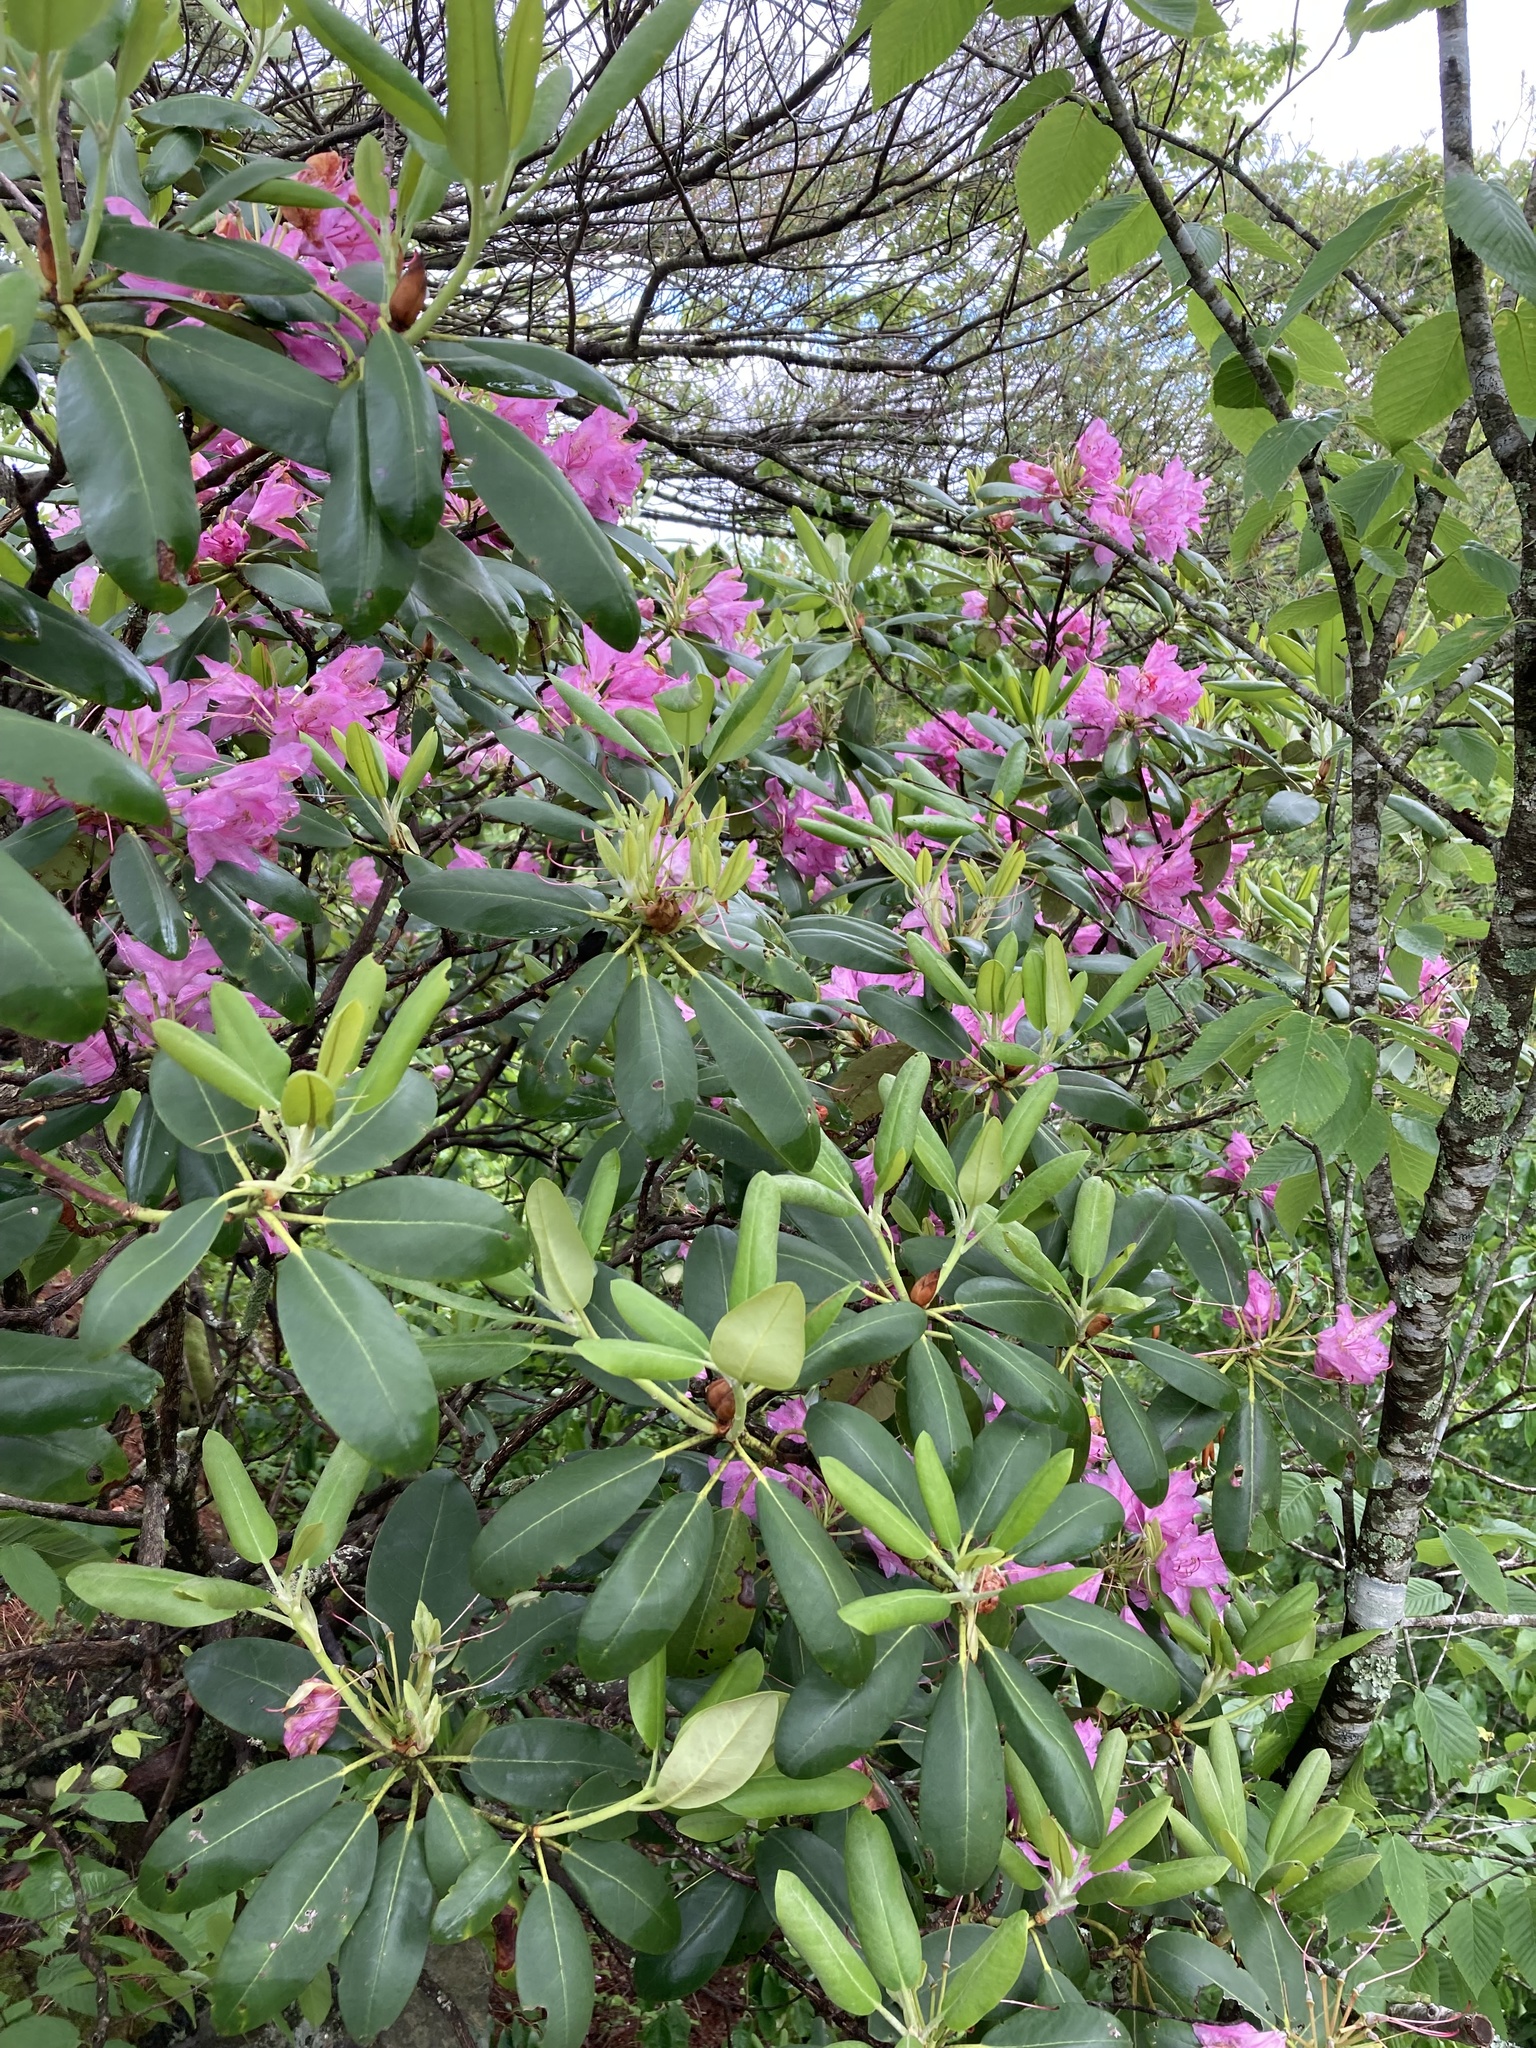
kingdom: Plantae
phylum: Tracheophyta
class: Magnoliopsida
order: Ericales
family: Ericaceae
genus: Rhododendron
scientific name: Rhododendron catawbiense
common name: Catawba rhododendron
